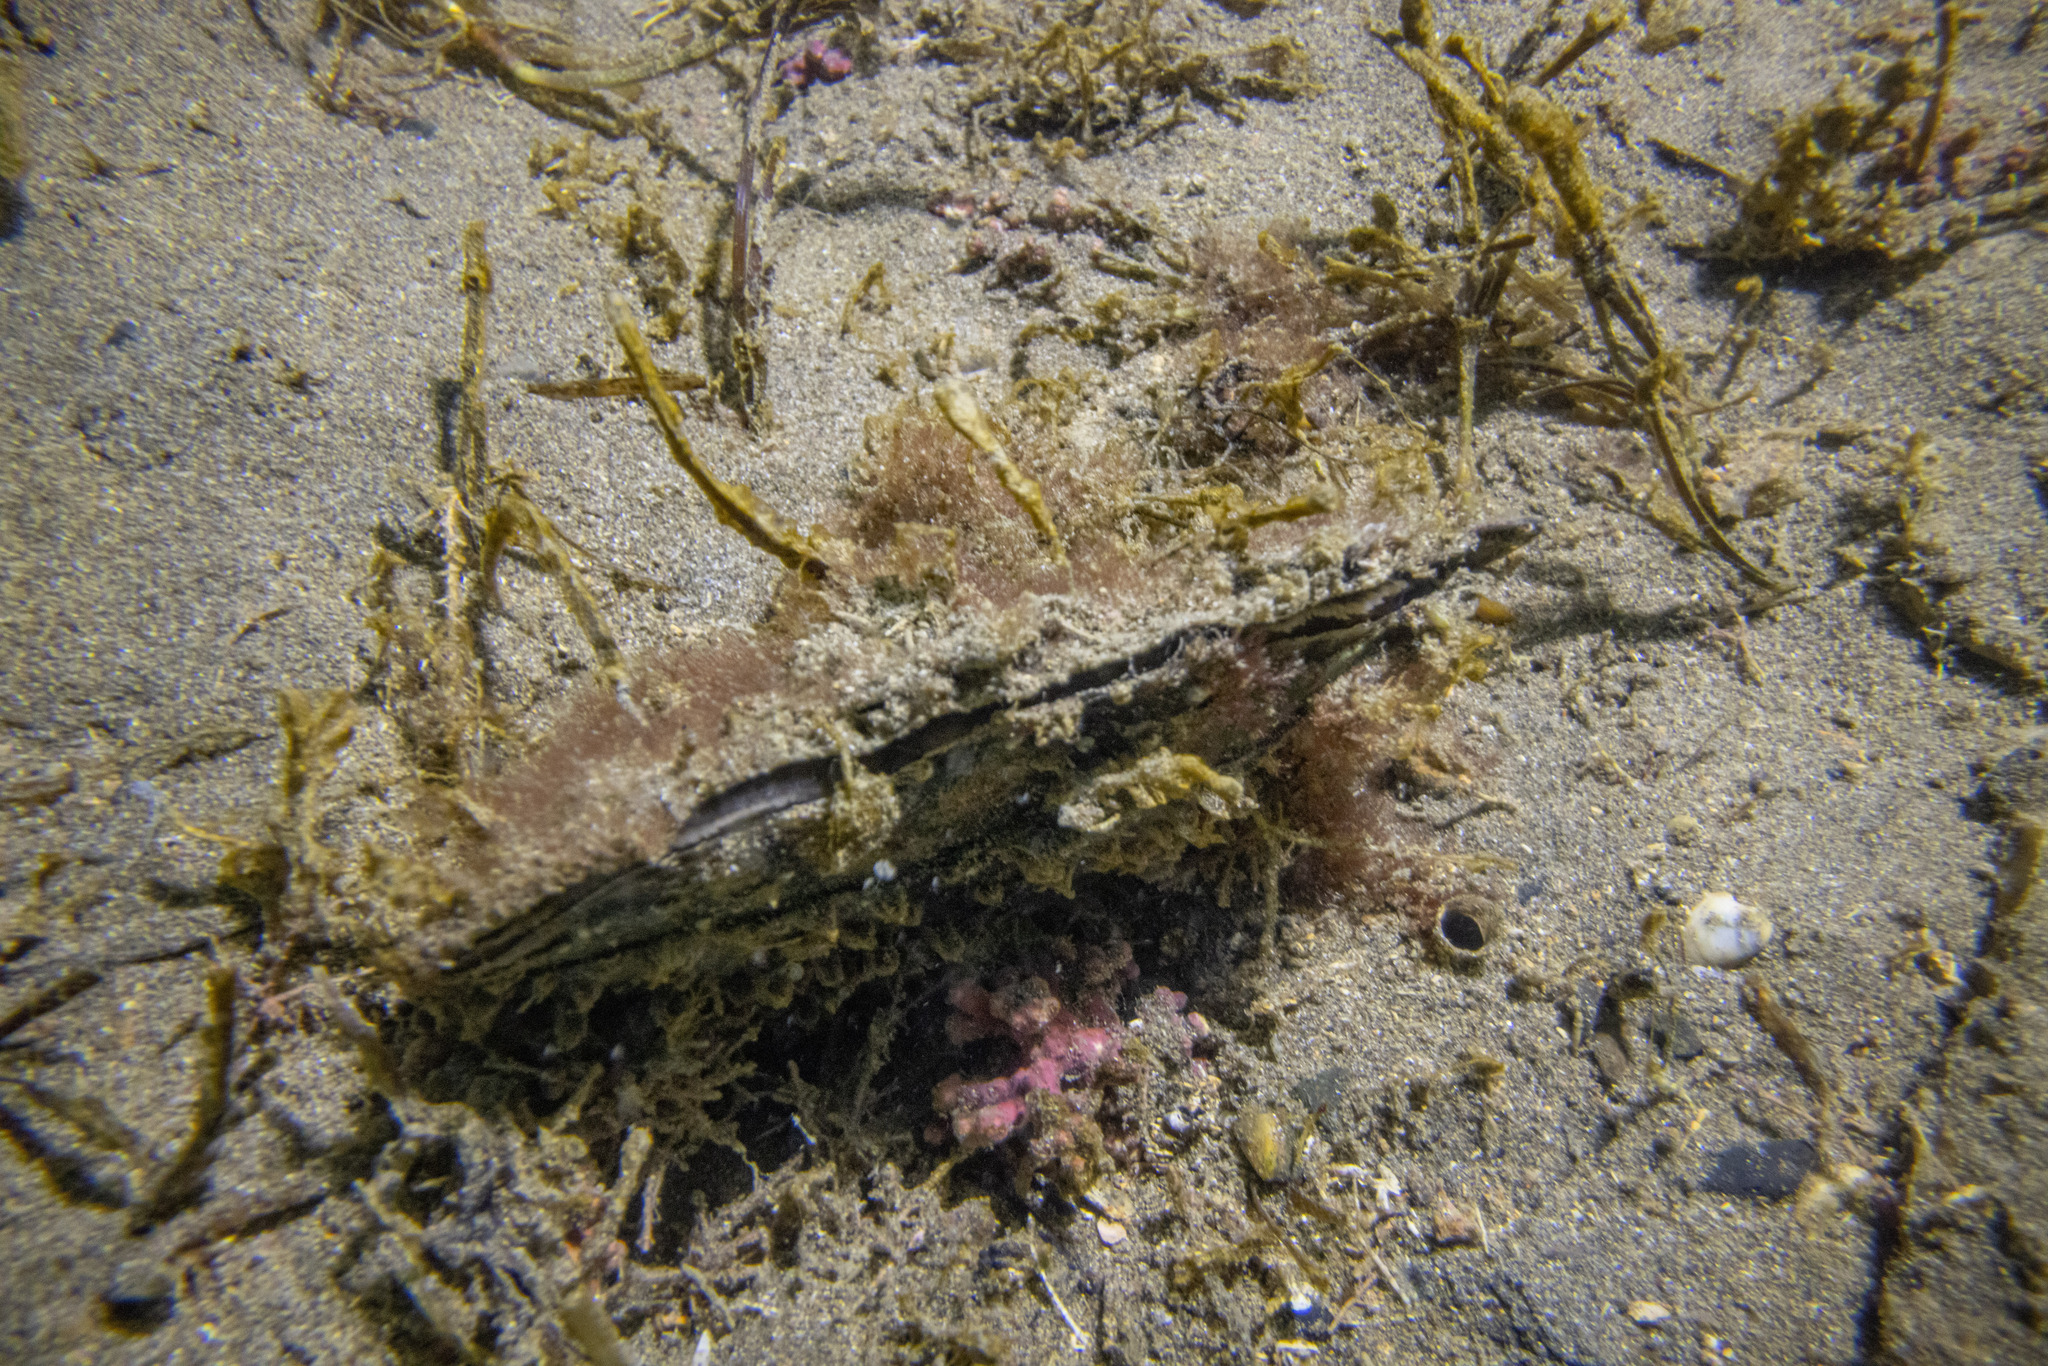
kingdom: Animalia
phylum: Mollusca
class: Bivalvia
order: Ostreida
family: Pinnidae
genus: Atrina
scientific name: Atrina zelandica
